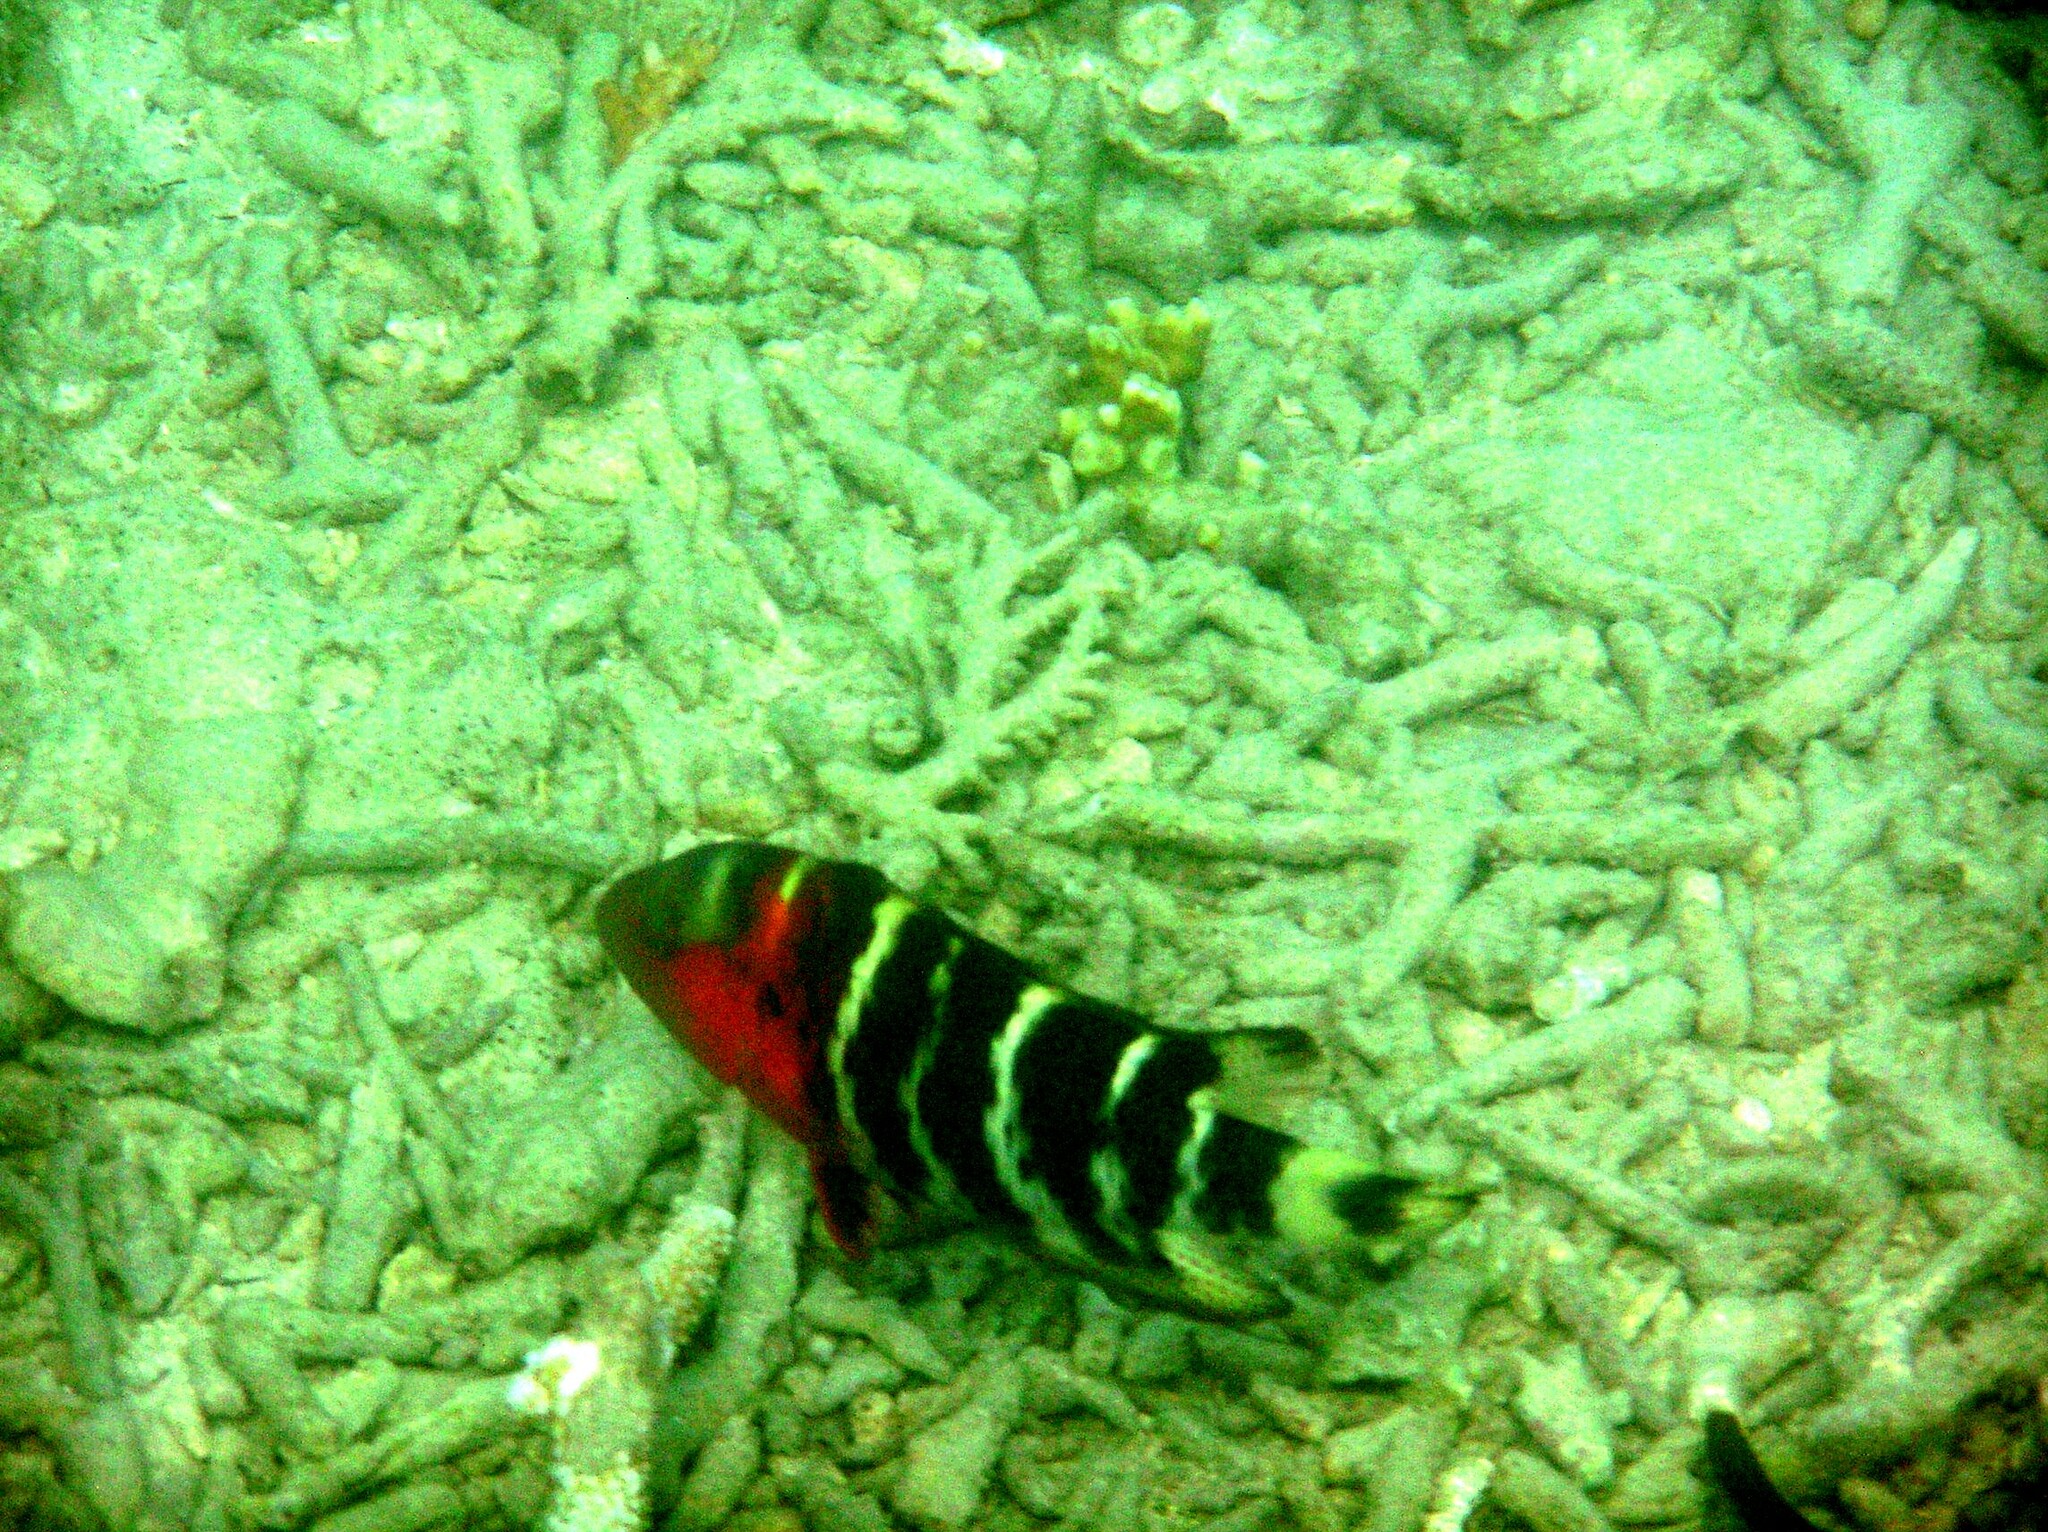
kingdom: Animalia
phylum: Chordata
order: Perciformes
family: Labridae
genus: Cheilinus
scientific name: Cheilinus fasciatus
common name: Red-breasted wrasse
